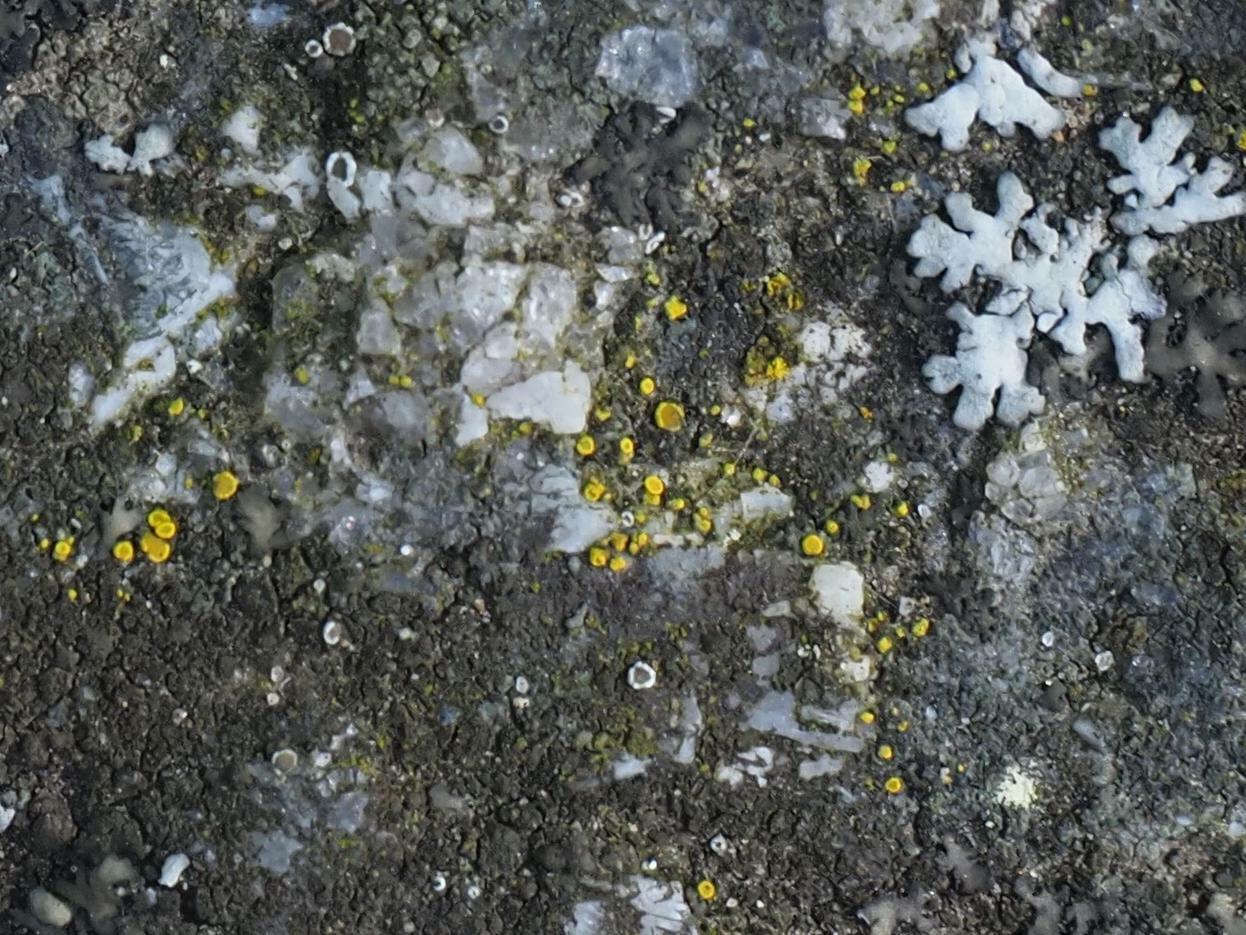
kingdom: Fungi
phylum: Ascomycota
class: Candelariomycetes
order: Candelariales
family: Candelariaceae
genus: Candelariella
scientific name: Candelariella aurella
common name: Hidden goldspeck lichen
